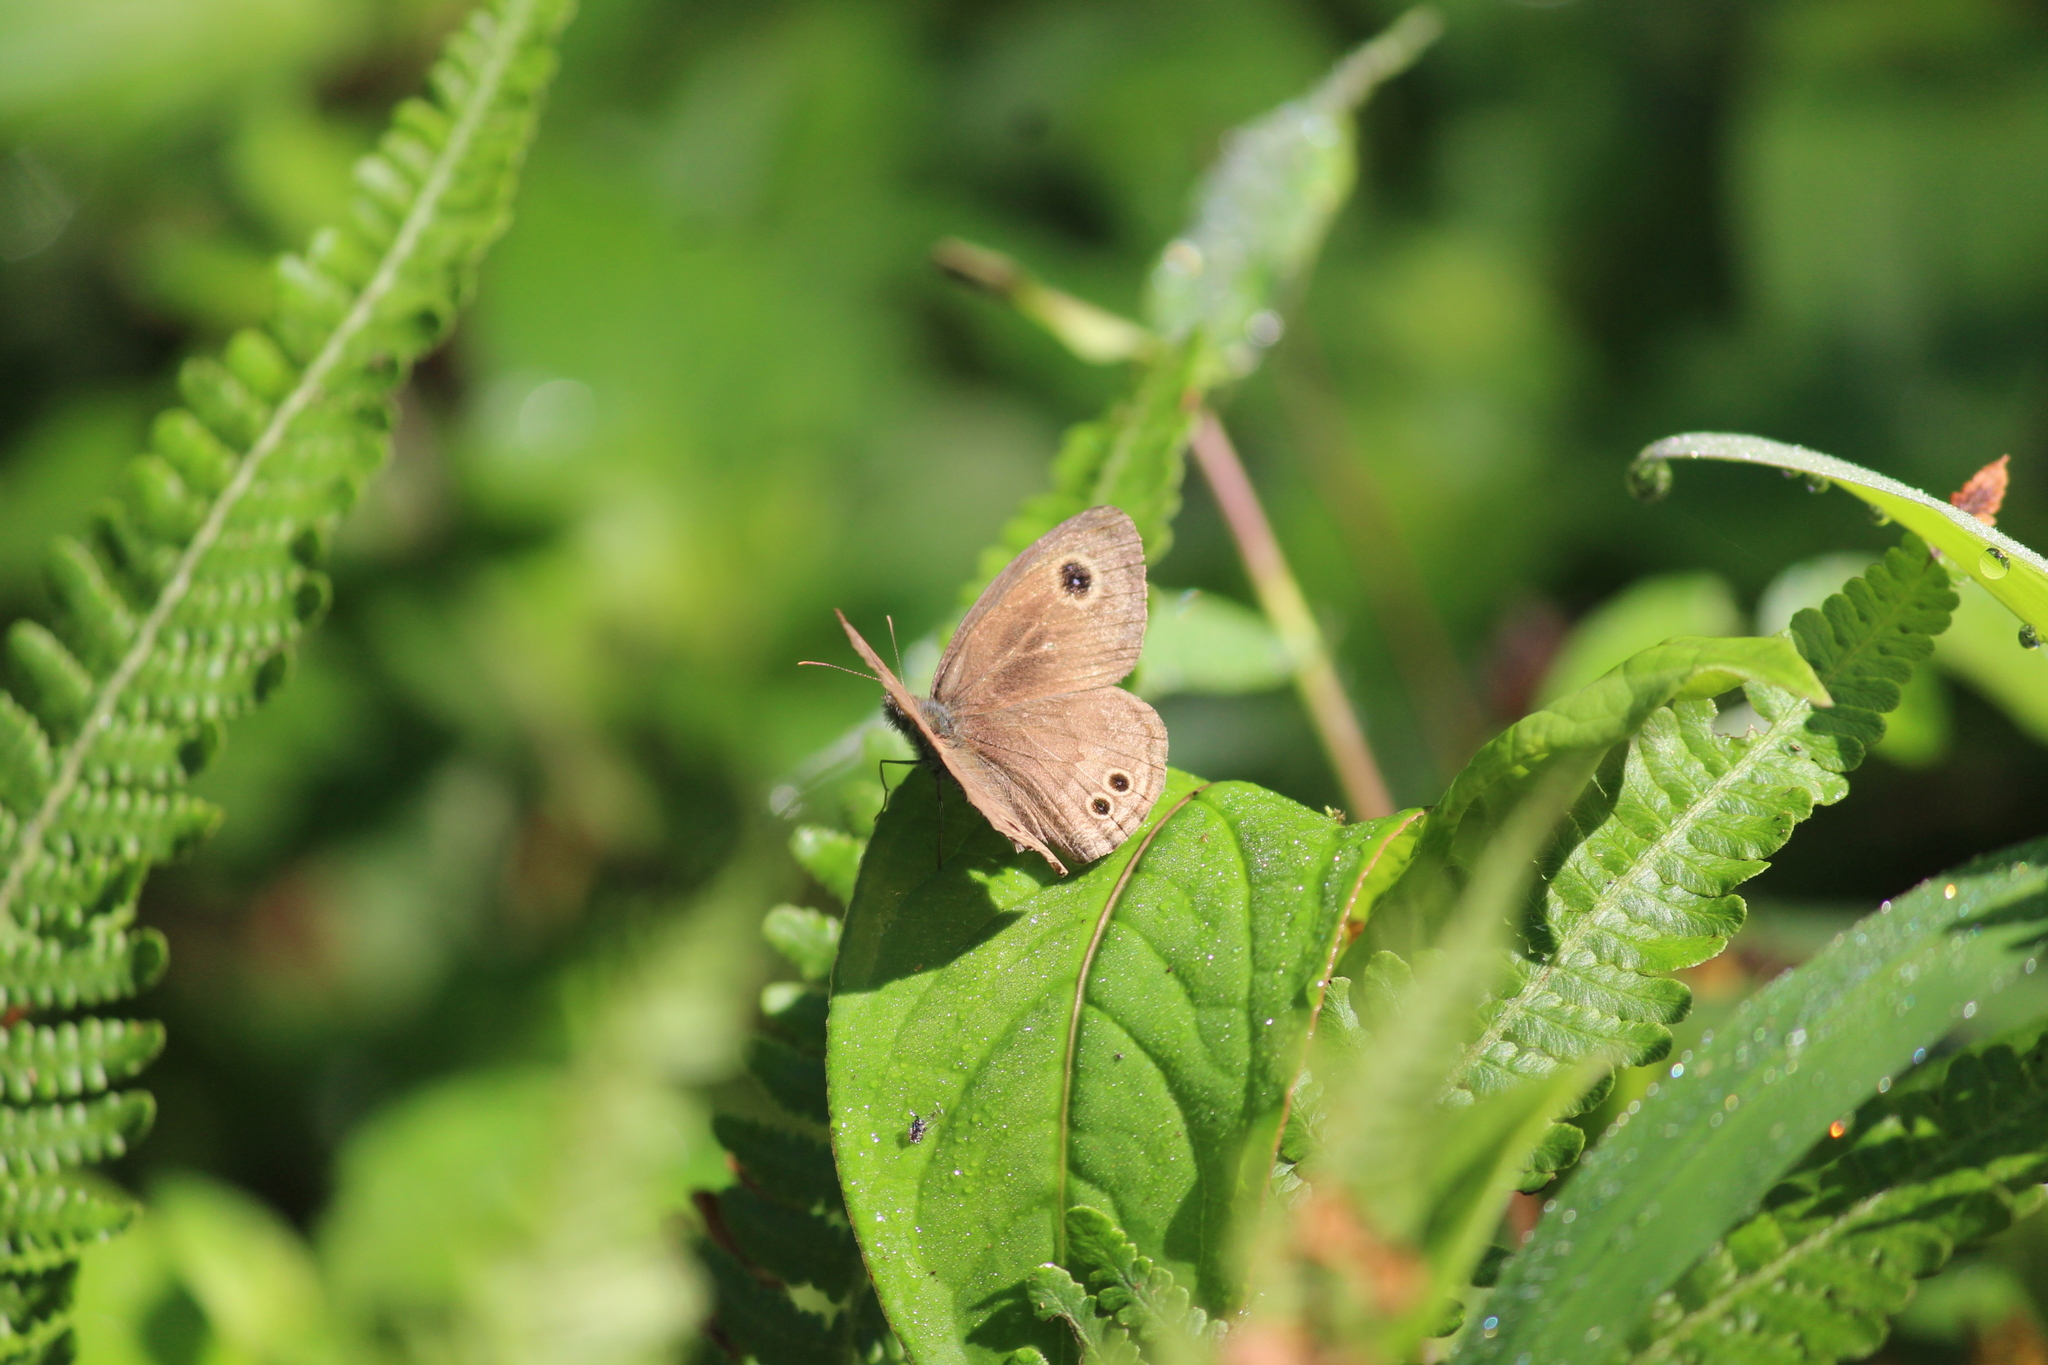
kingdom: Animalia
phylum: Arthropoda
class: Insecta
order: Lepidoptera
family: Nymphalidae
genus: Ypthima
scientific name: Ypthima baldus
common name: Common five-ring
